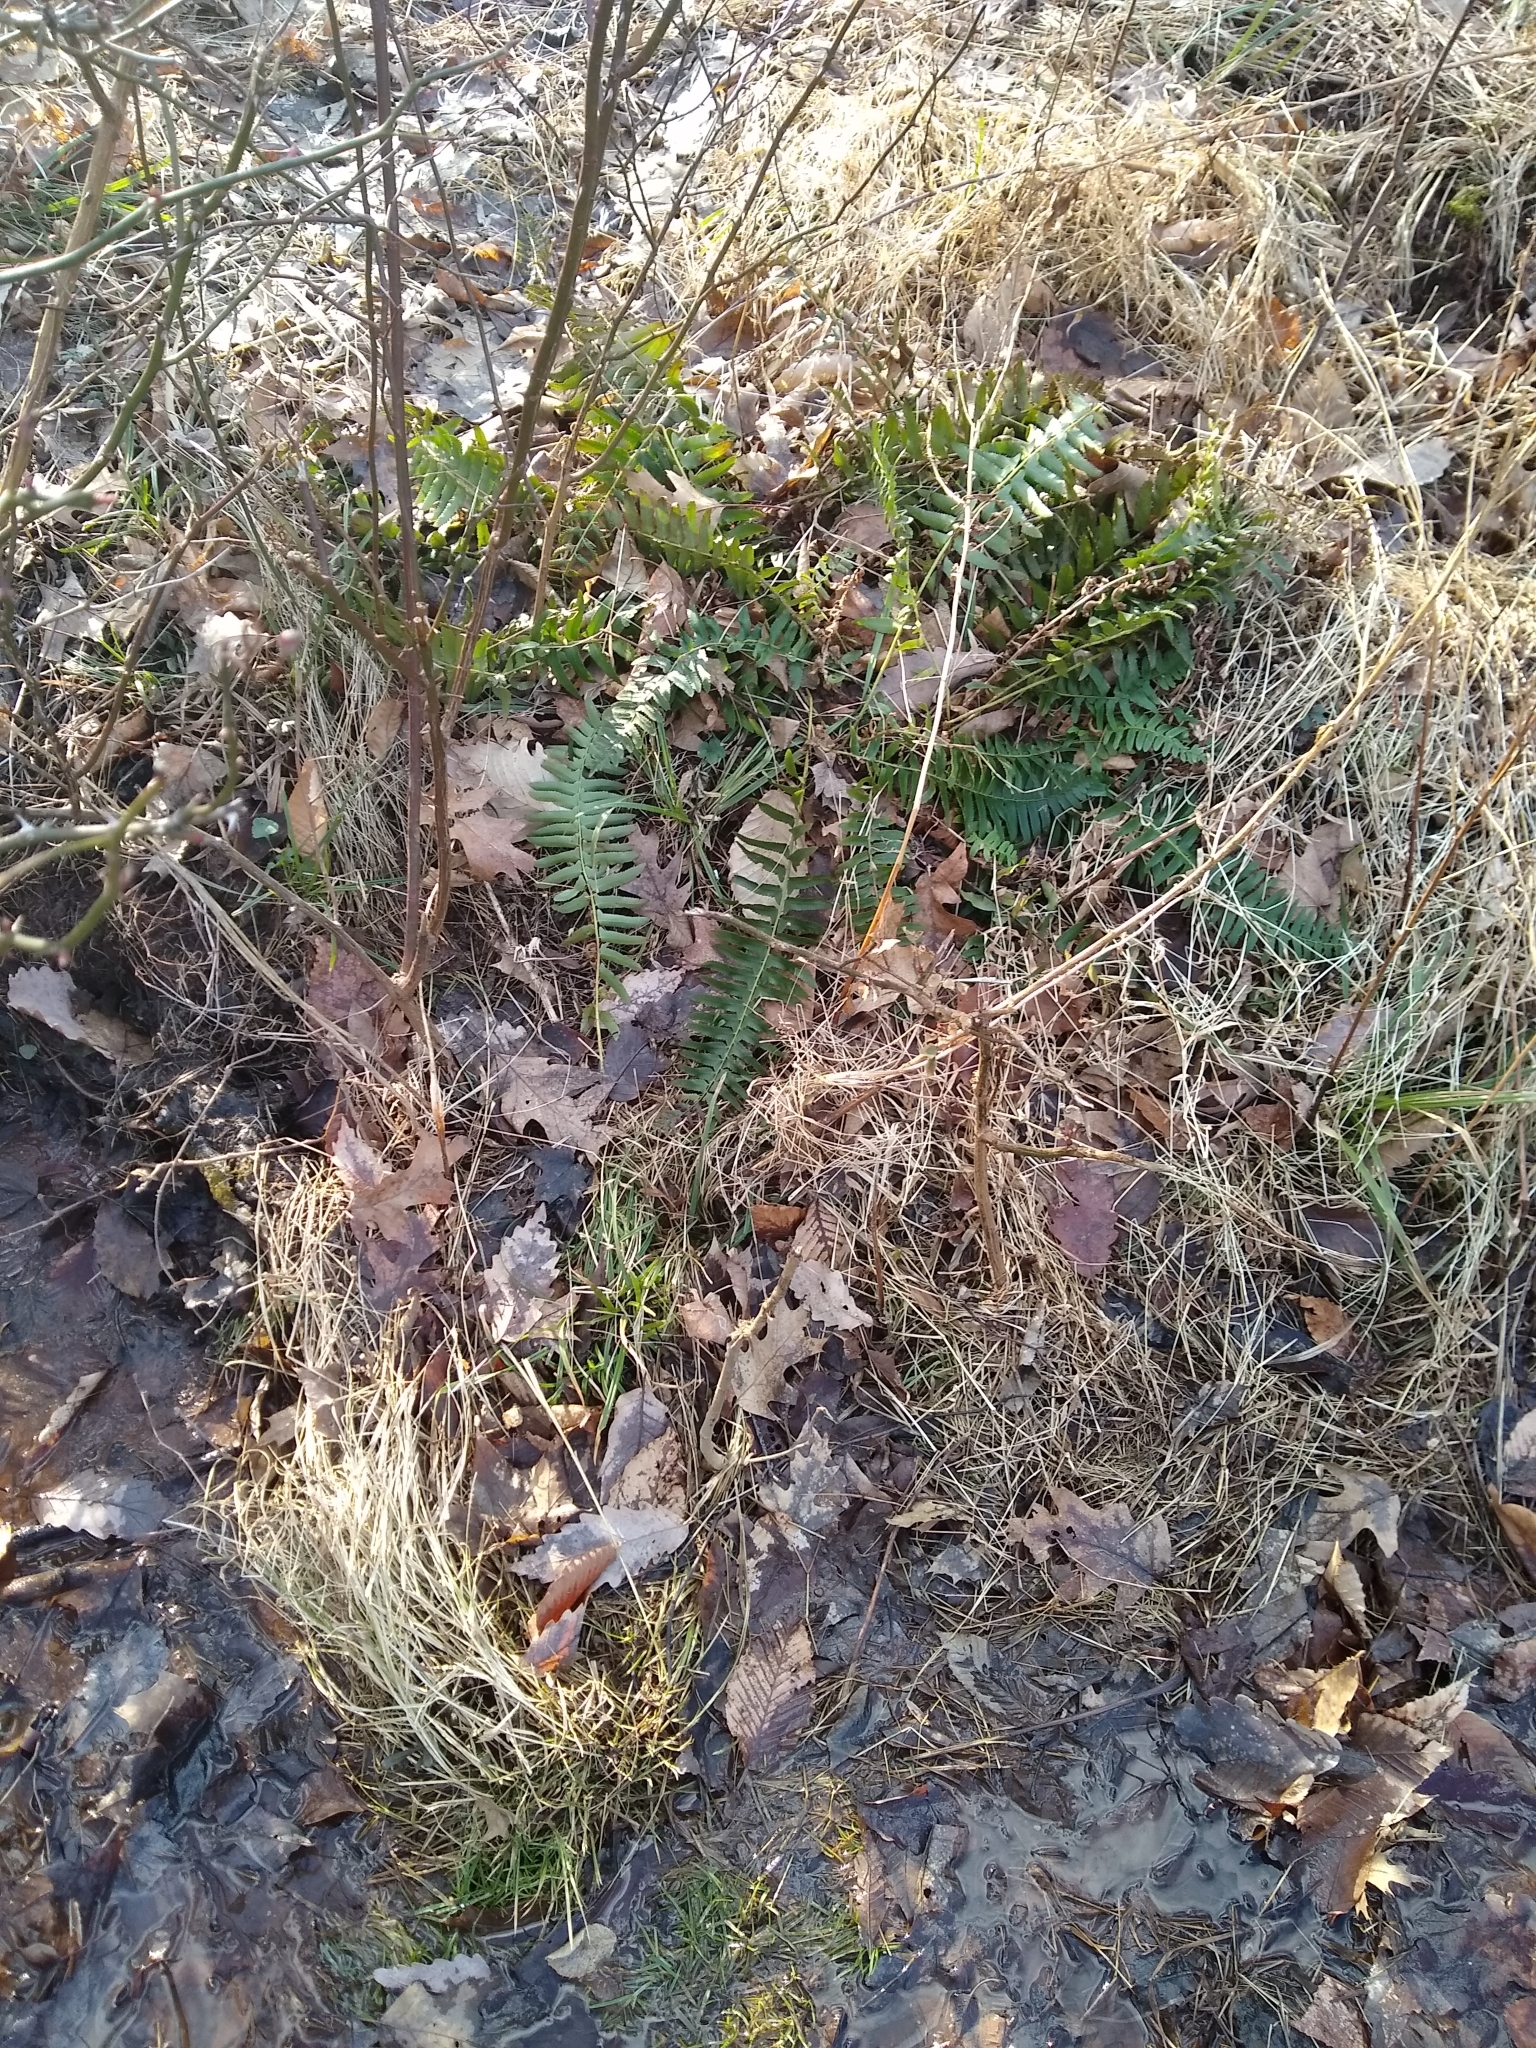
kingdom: Plantae
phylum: Tracheophyta
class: Polypodiopsida
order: Polypodiales
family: Dryopteridaceae
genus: Polystichum
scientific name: Polystichum acrostichoides
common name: Christmas fern
